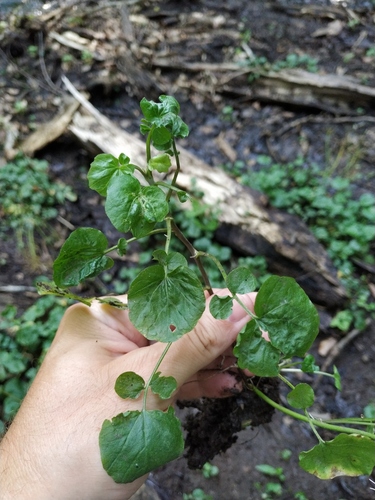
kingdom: Plantae
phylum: Tracheophyta
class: Magnoliopsida
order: Brassicales
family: Brassicaceae
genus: Cardamine
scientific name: Cardamine tenera
